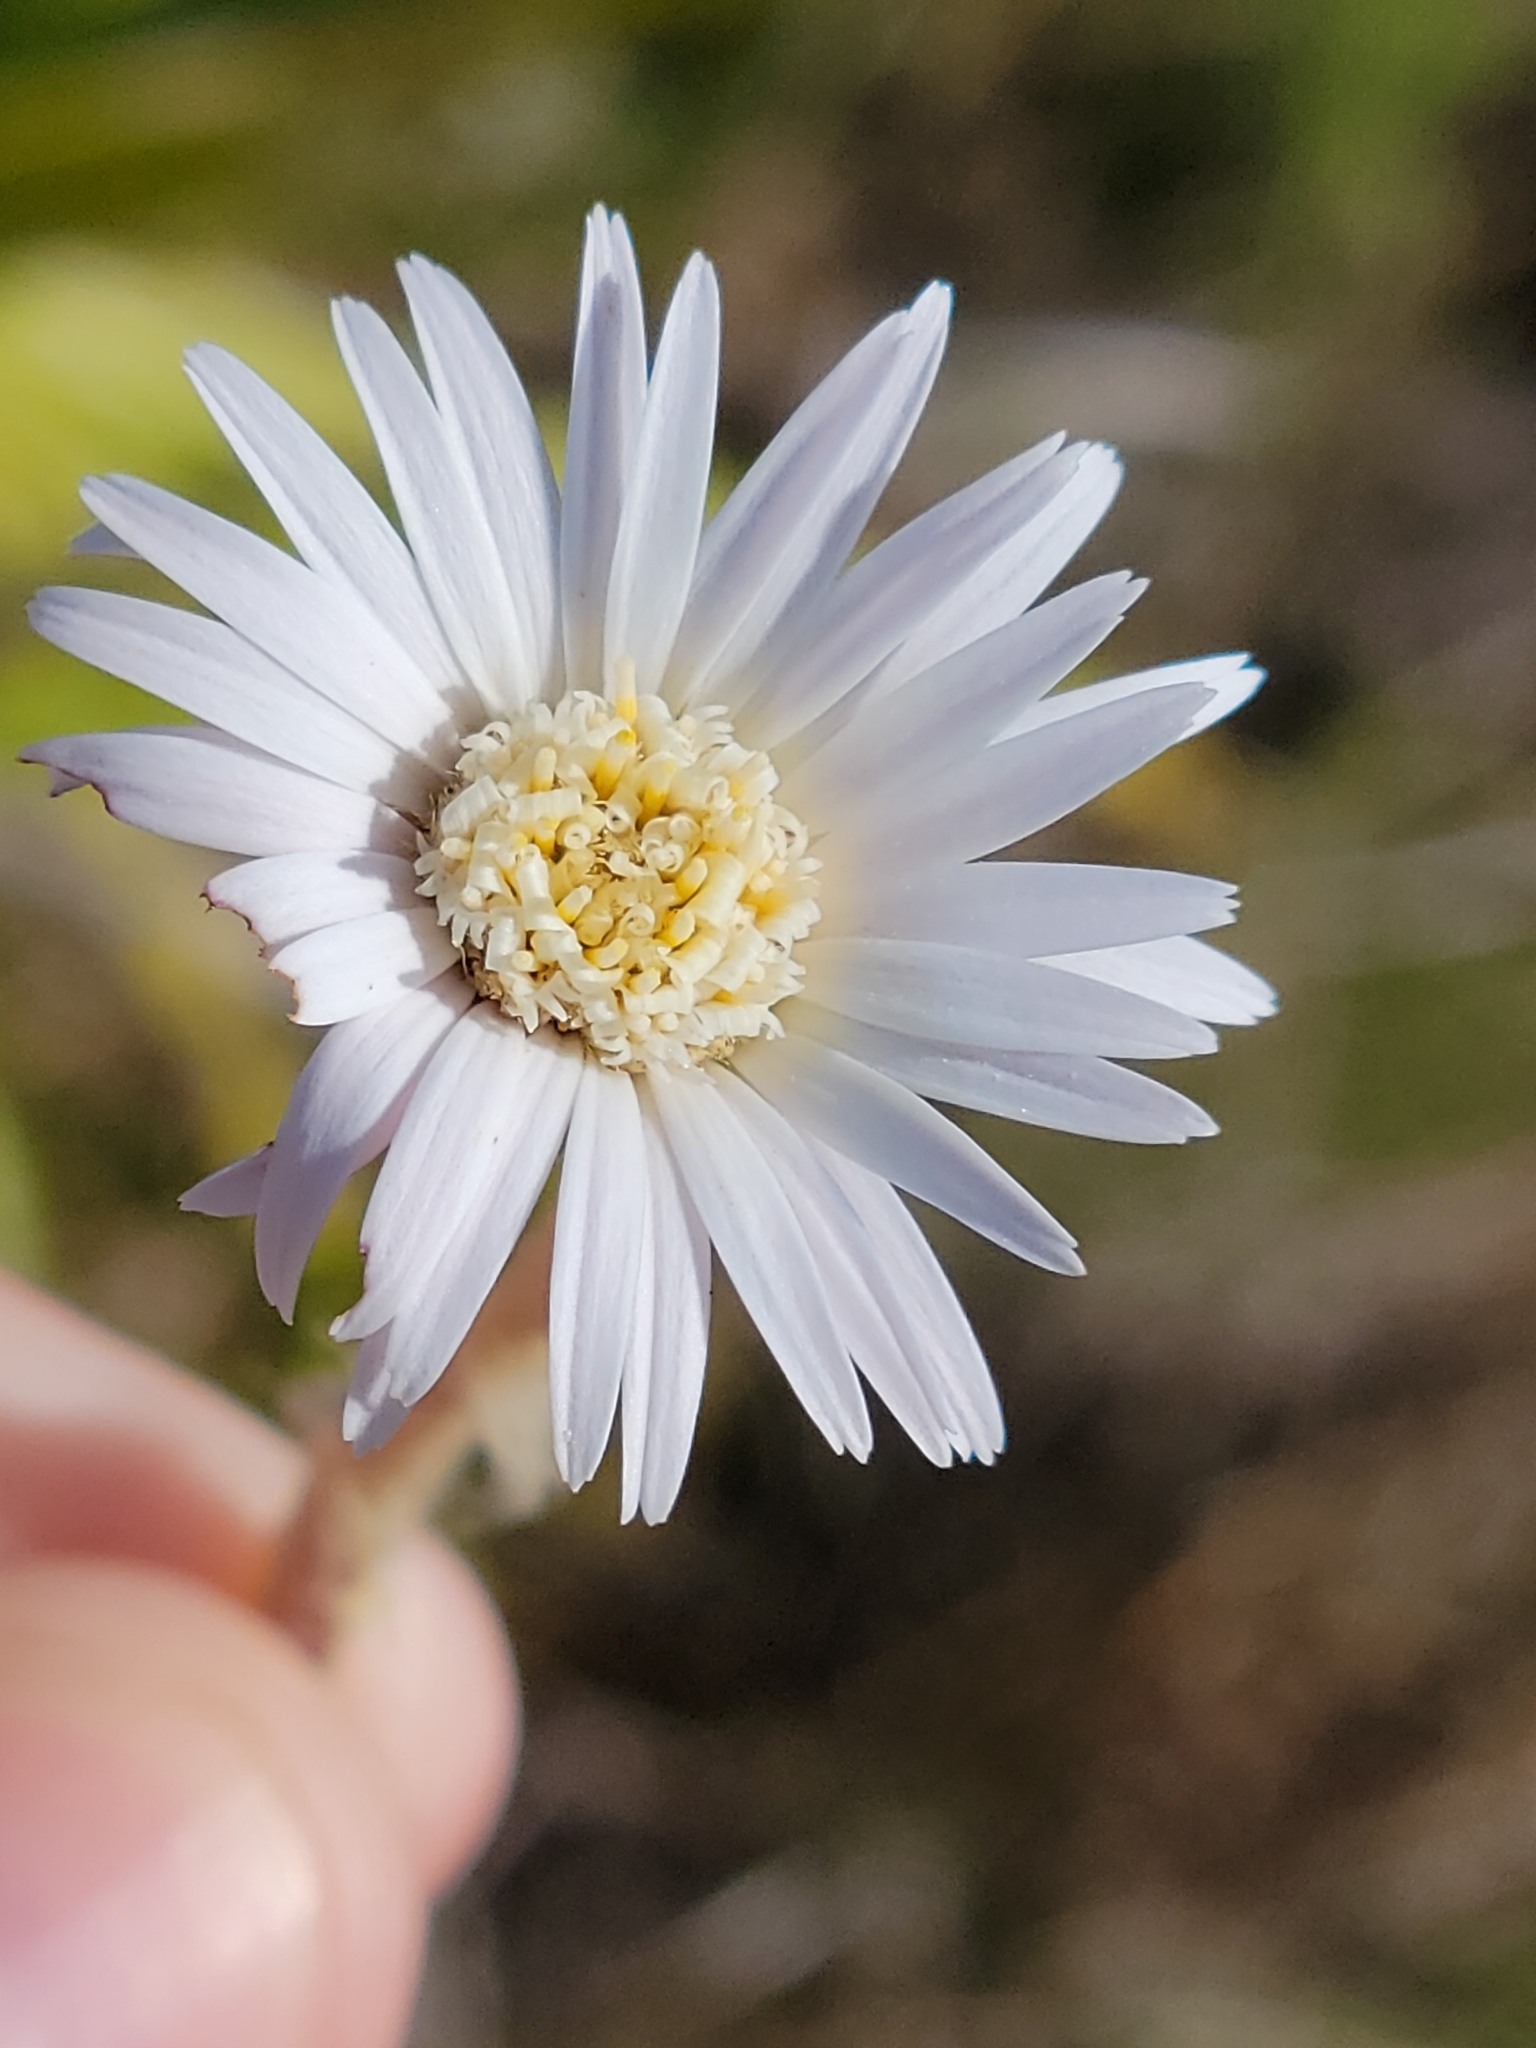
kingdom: Plantae
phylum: Tracheophyta
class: Magnoliopsida
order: Asterales
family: Asteraceae
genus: Chaptalia
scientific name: Chaptalia tomentosa
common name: Woolly sunbonnet
